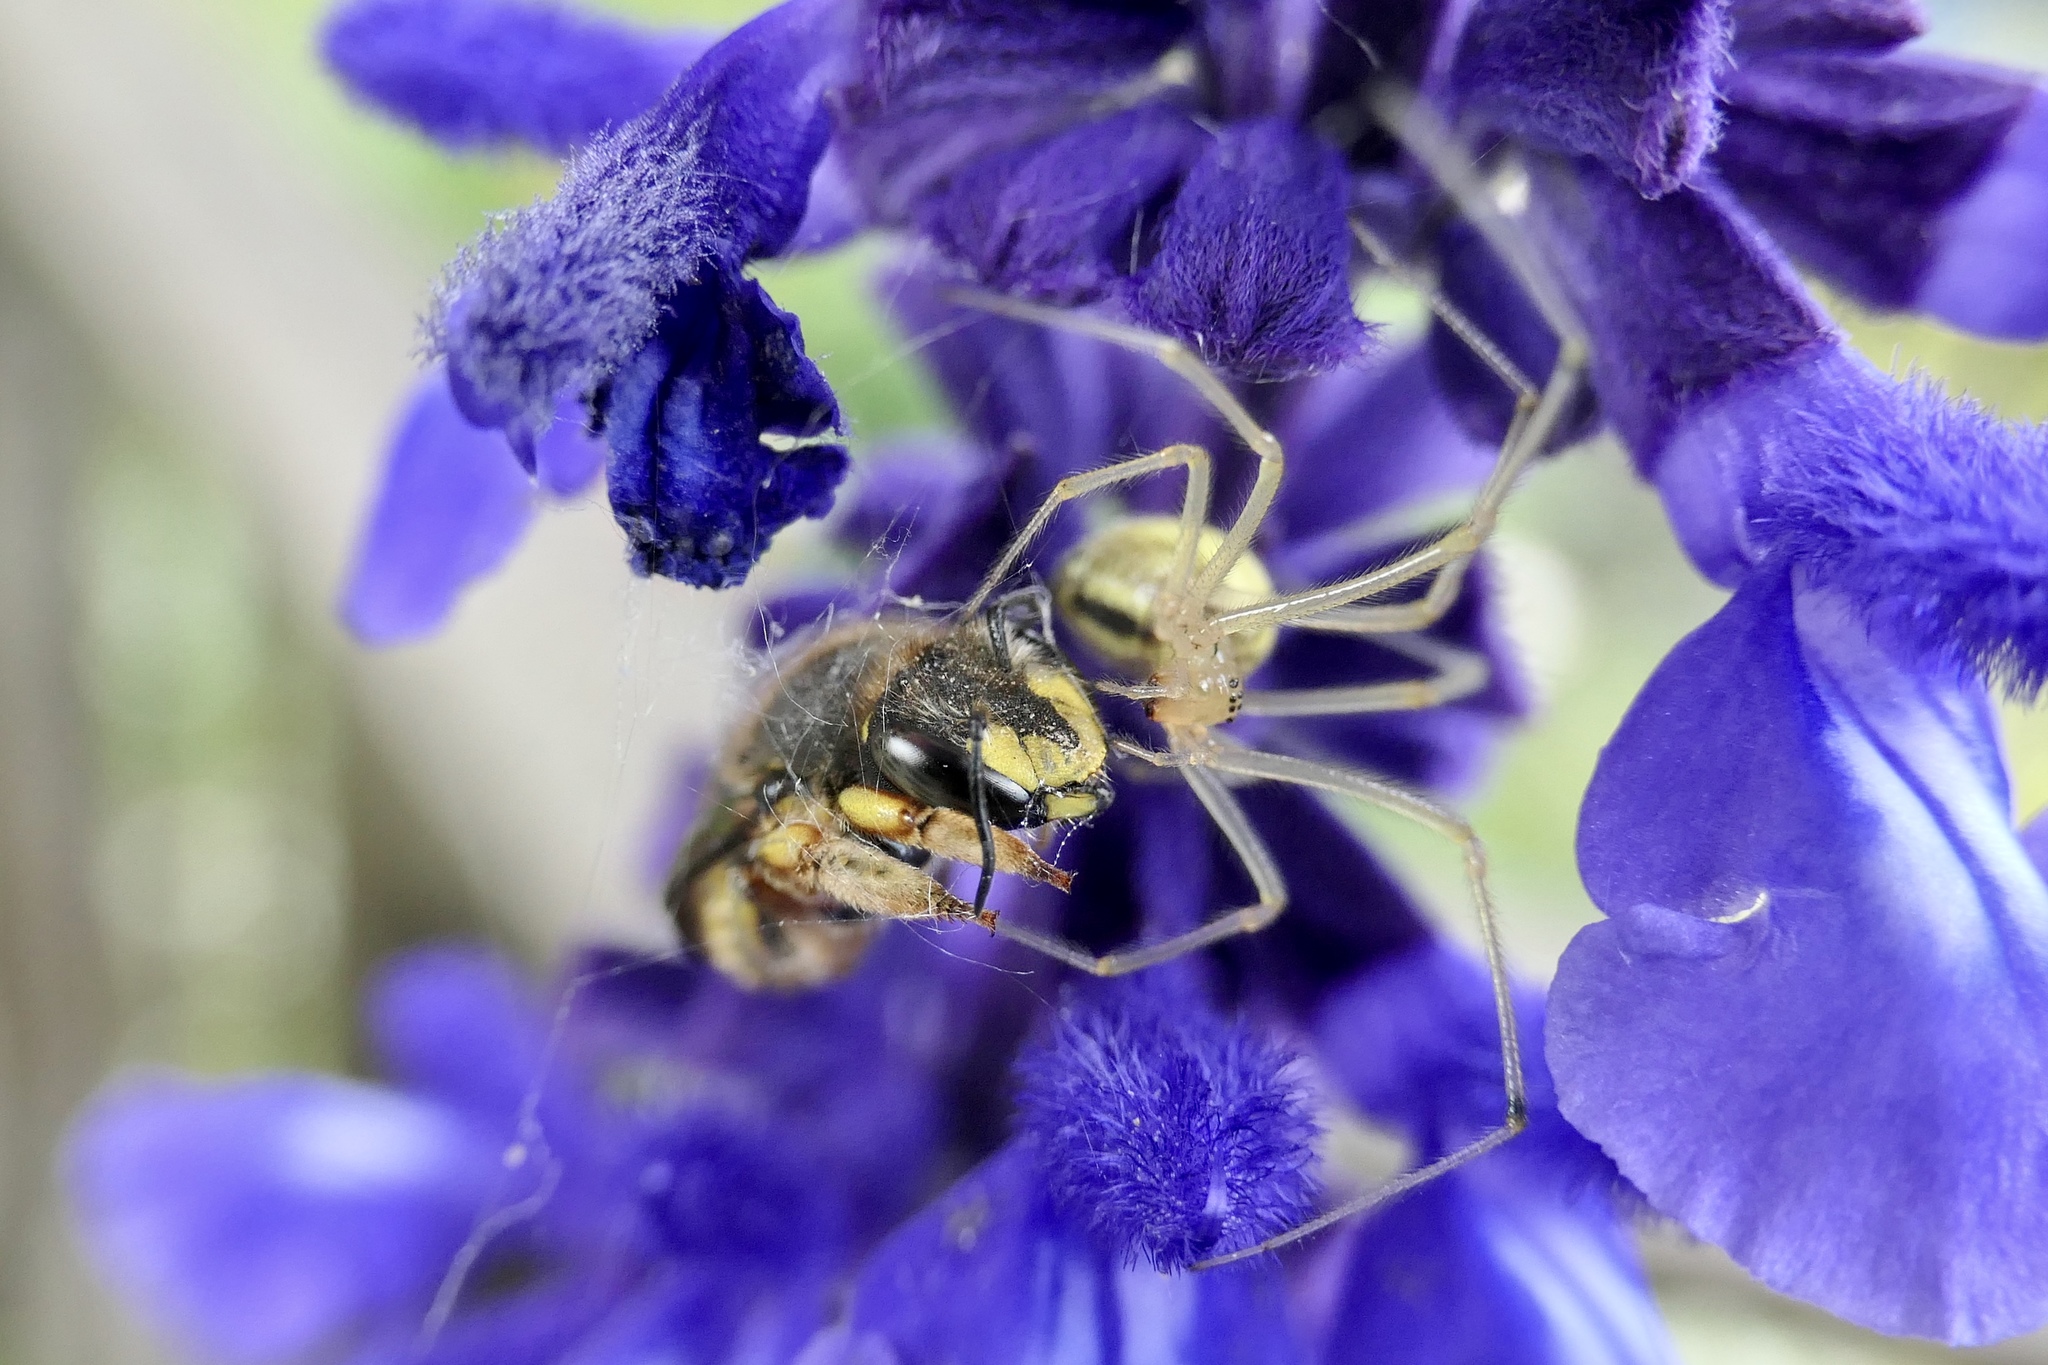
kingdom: Animalia
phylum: Arthropoda
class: Insecta
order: Hymenoptera
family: Megachilidae
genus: Anthidium
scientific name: Anthidium manicatum
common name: Wool carder bee
